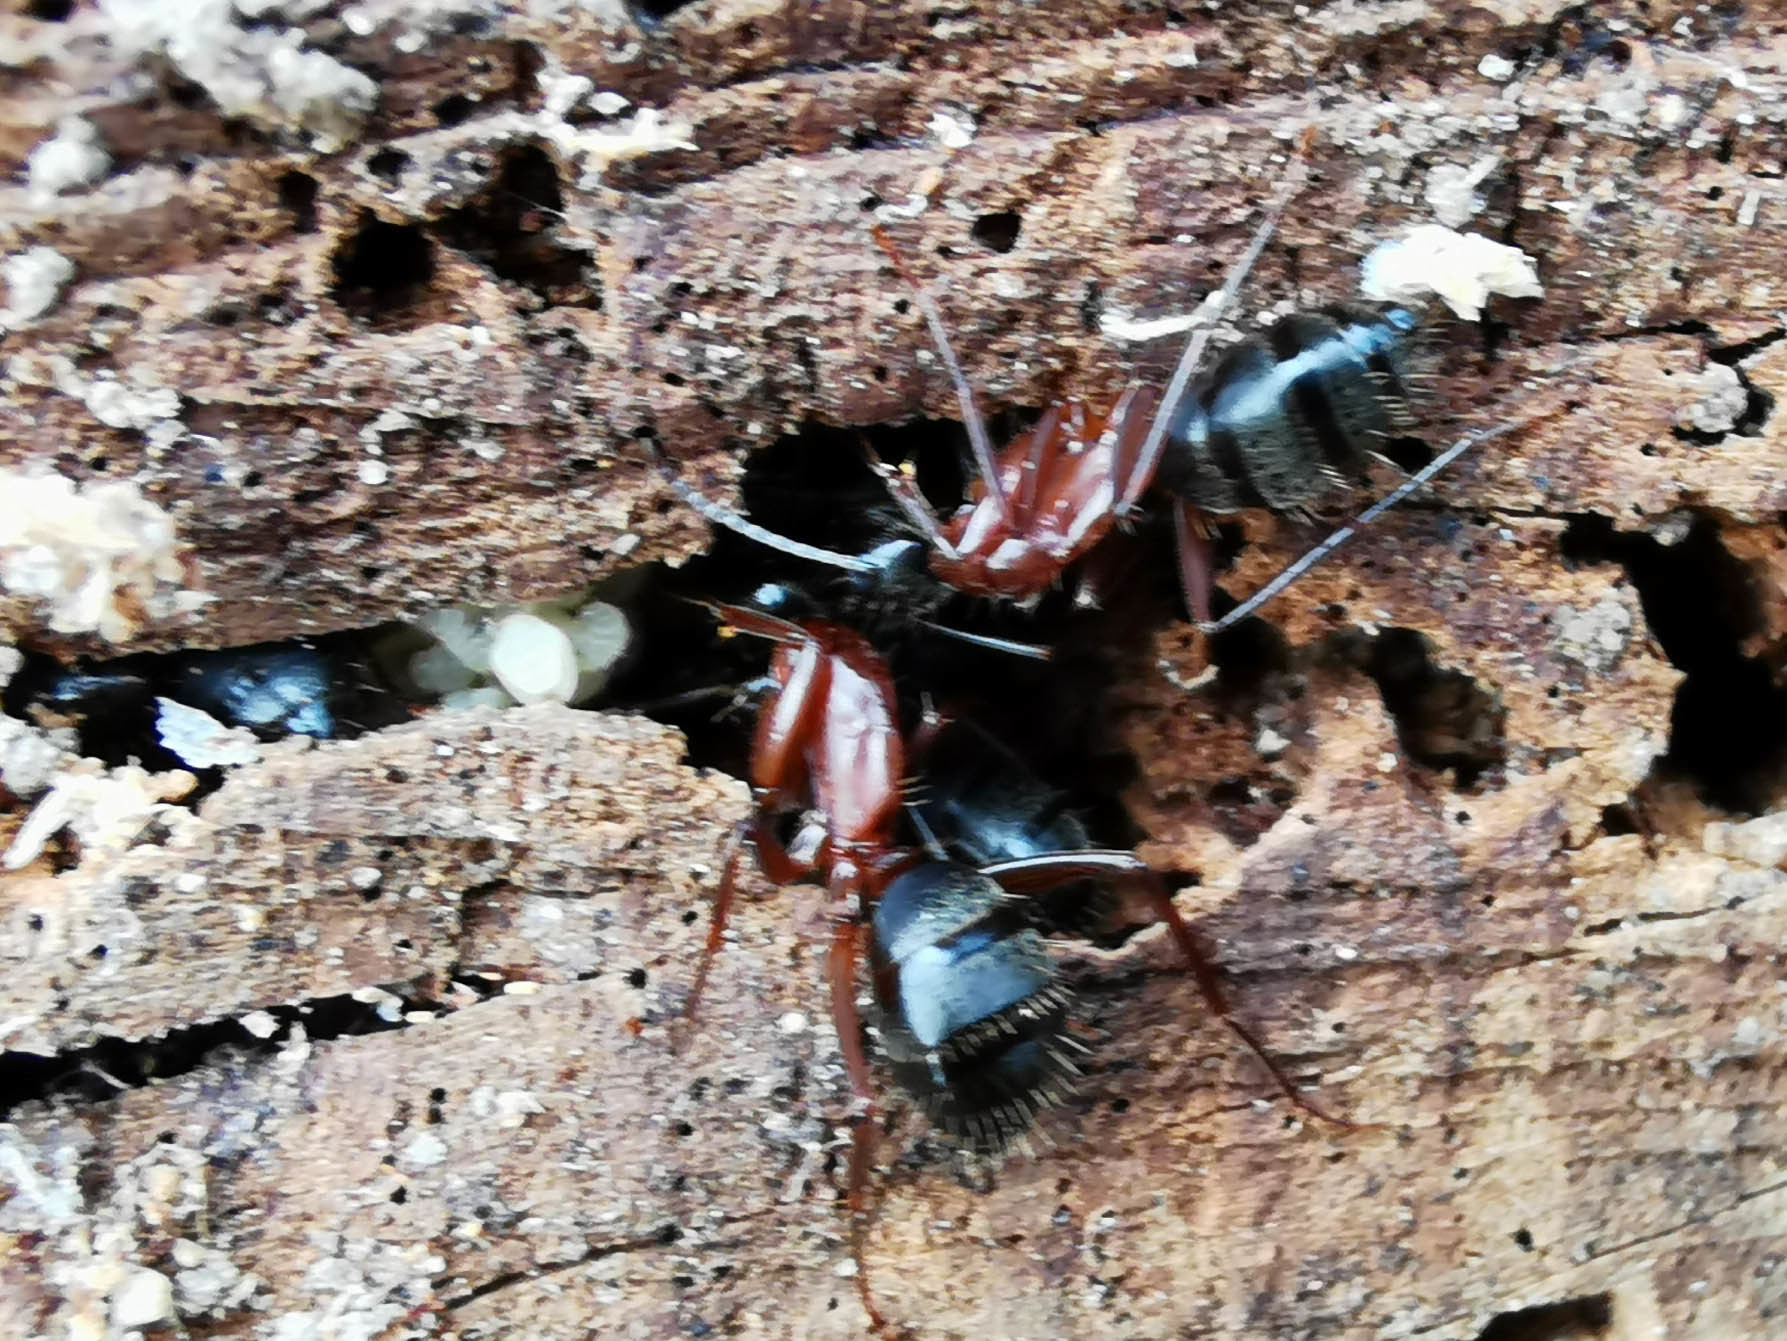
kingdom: Animalia
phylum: Arthropoda
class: Insecta
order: Hymenoptera
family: Formicidae
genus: Camponotus
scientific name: Camponotus vicinus
